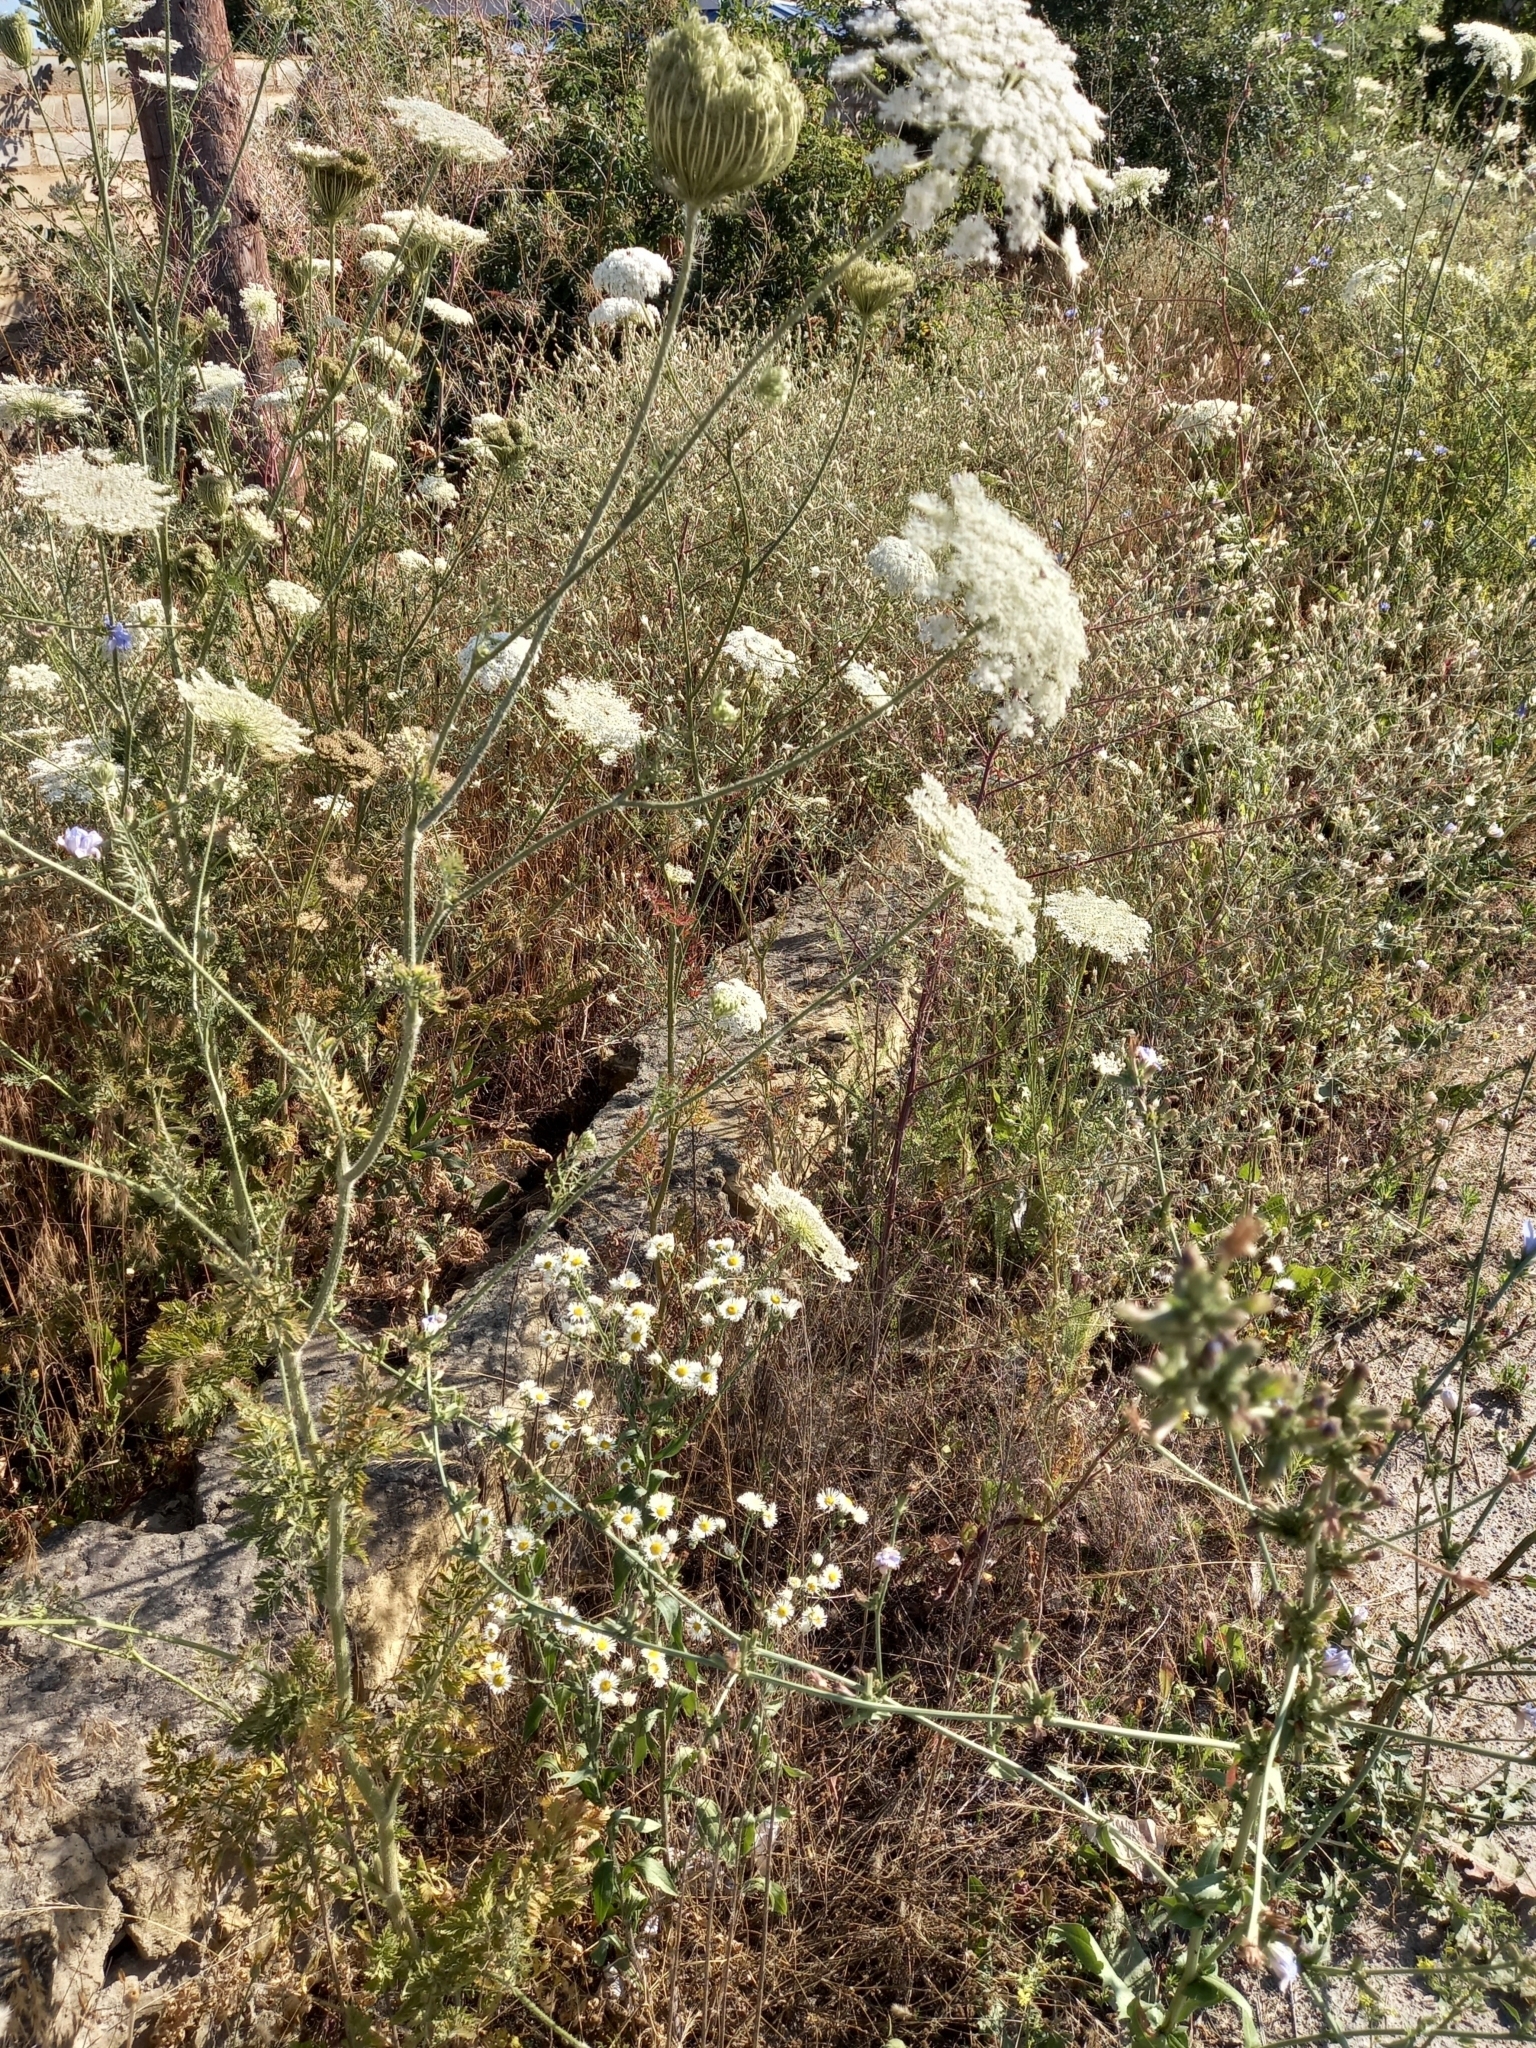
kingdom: Plantae
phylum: Tracheophyta
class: Magnoliopsida
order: Apiales
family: Apiaceae
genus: Daucus
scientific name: Daucus carota
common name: Wild carrot
